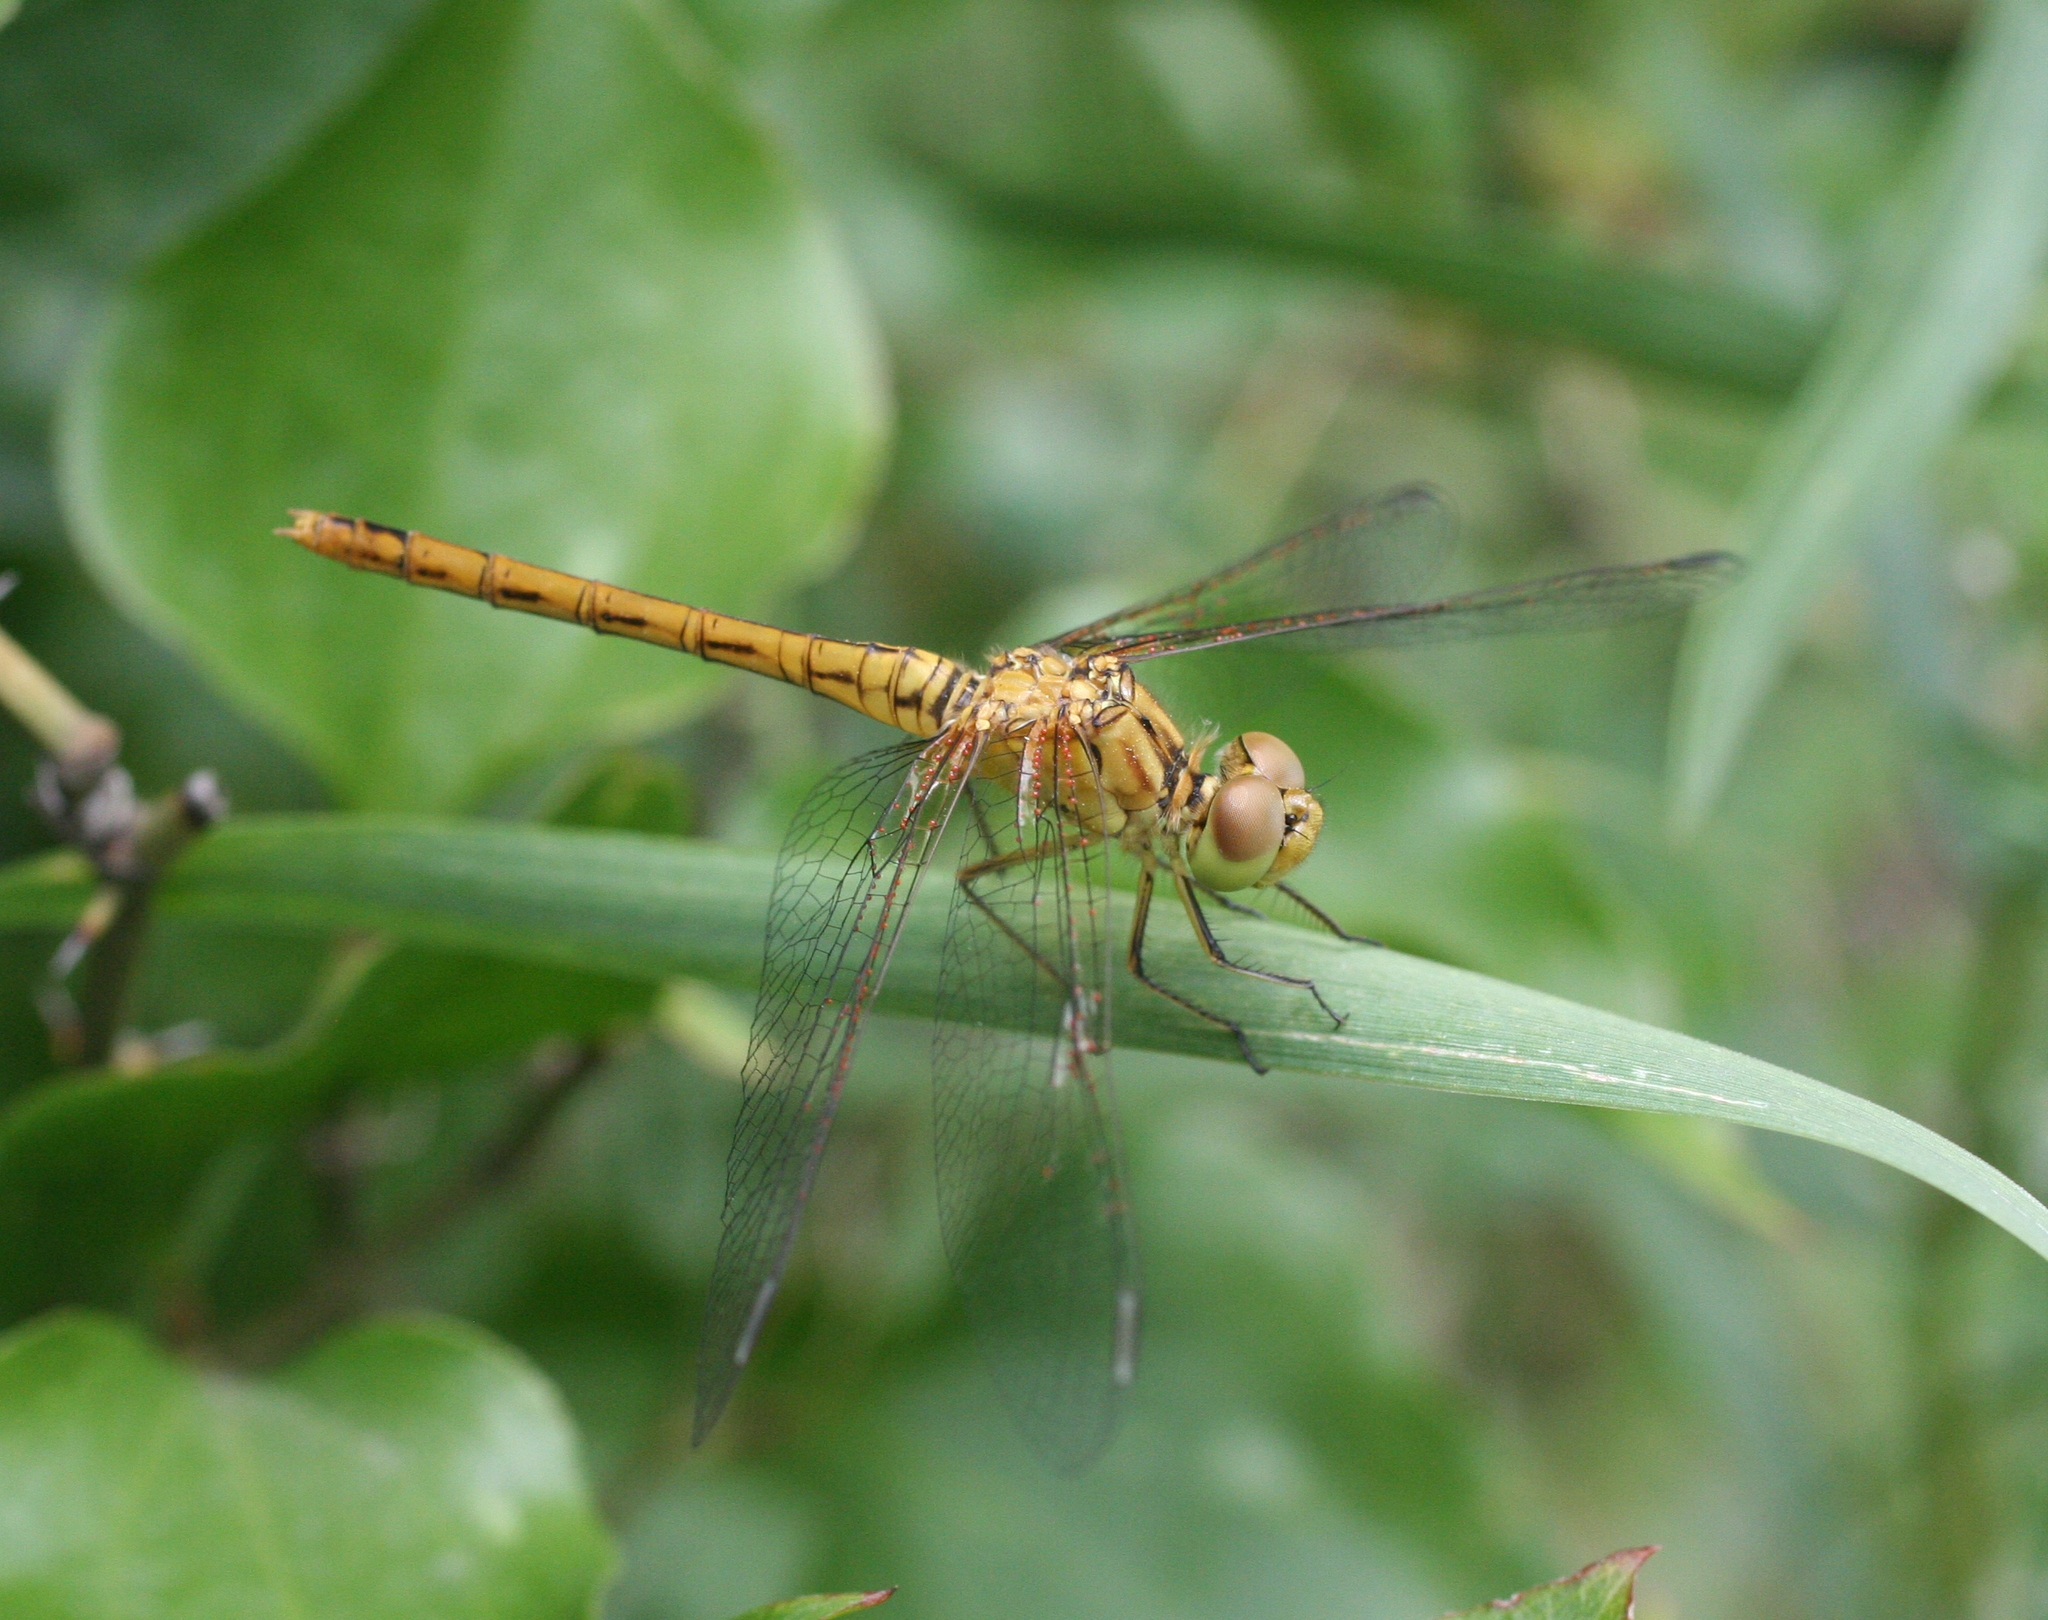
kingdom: Animalia
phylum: Arthropoda
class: Insecta
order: Odonata
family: Libellulidae
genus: Sympetrum
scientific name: Sympetrum meridionale
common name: Southern darter
